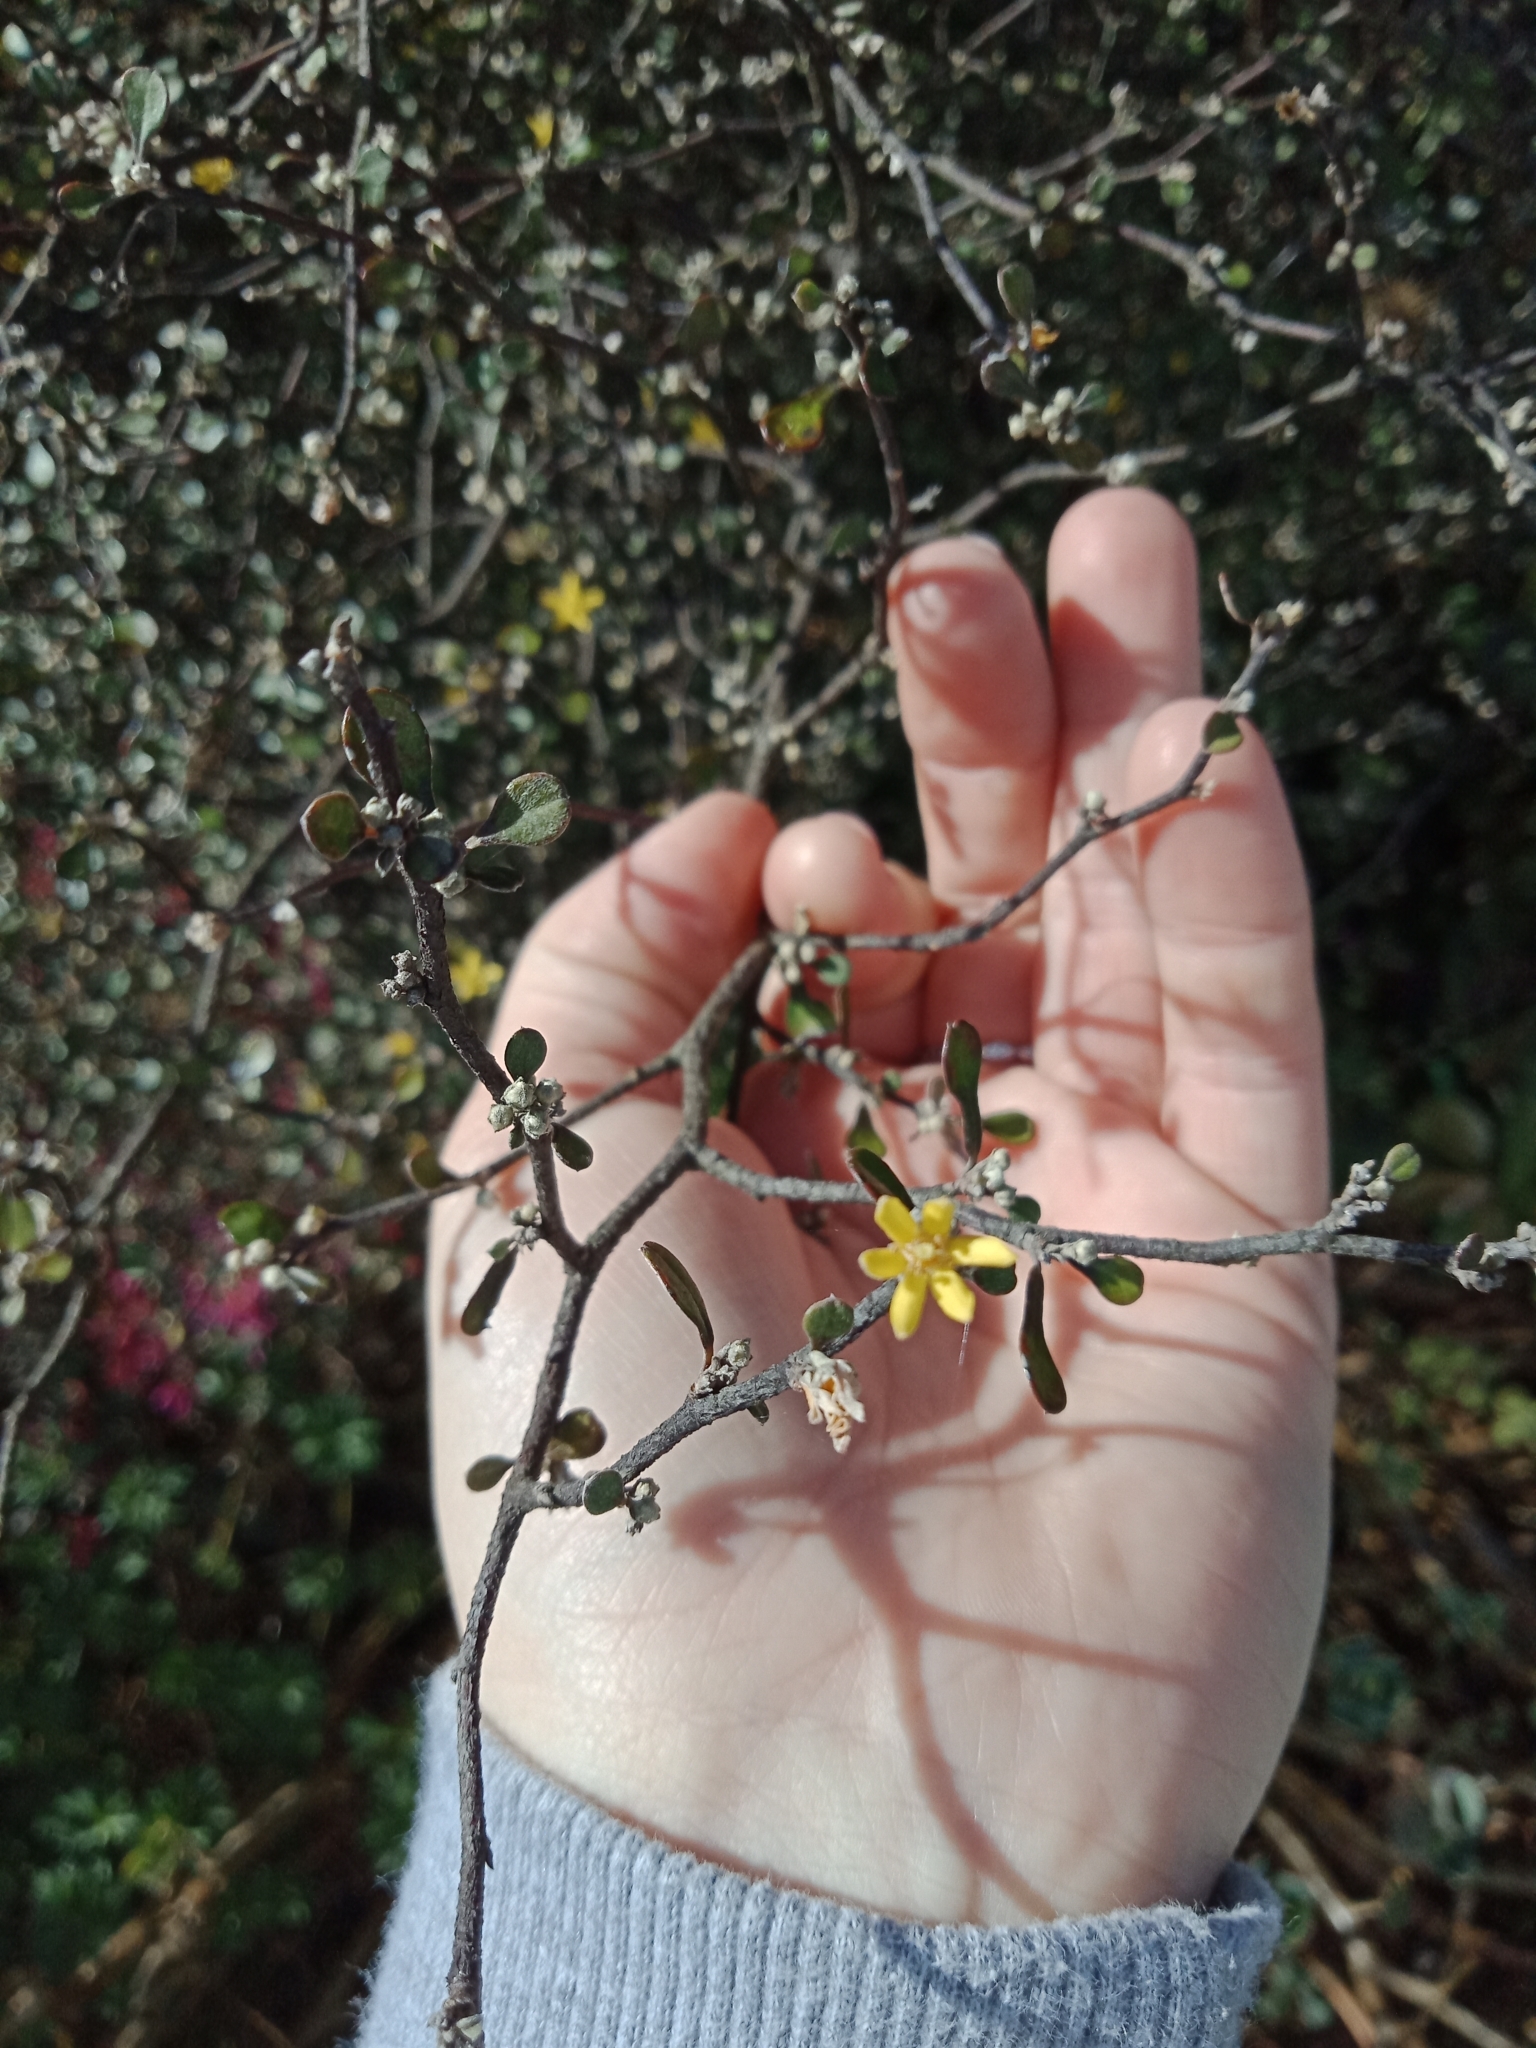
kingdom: Plantae
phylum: Tracheophyta
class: Magnoliopsida
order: Asterales
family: Argophyllaceae
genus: Corokia
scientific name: Corokia cotoneaster
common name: Wire nettingbush
